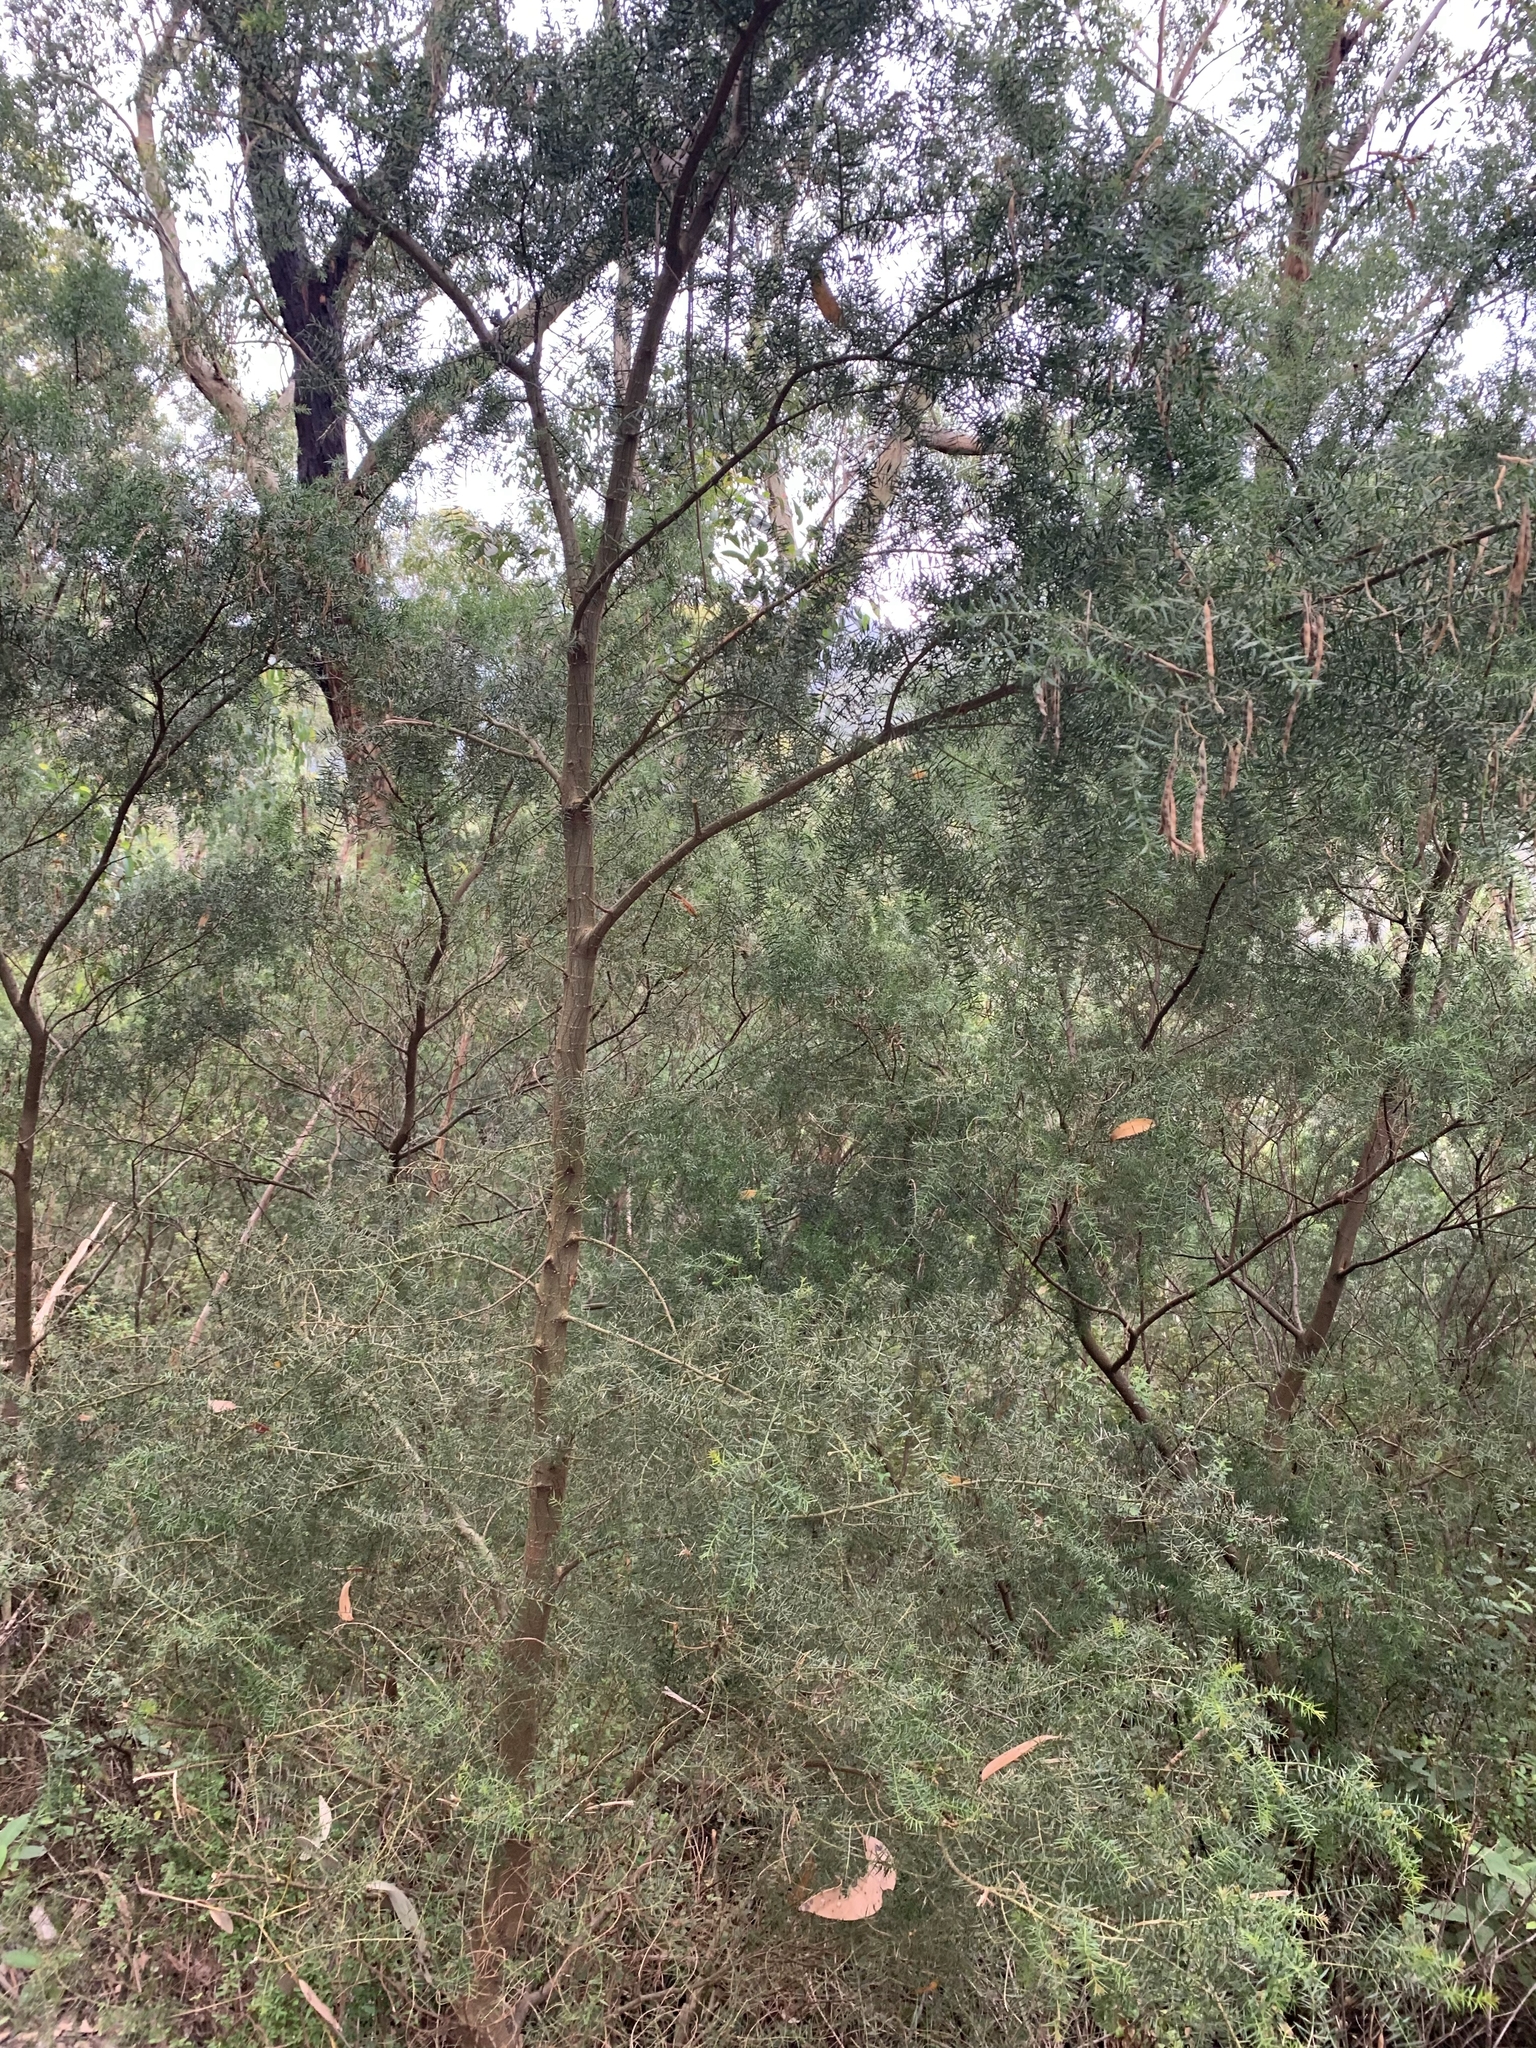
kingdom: Plantae
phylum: Tracheophyta
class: Magnoliopsida
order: Fabales
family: Fabaceae
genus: Acacia
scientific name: Acacia verticillata
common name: Prickly moses
